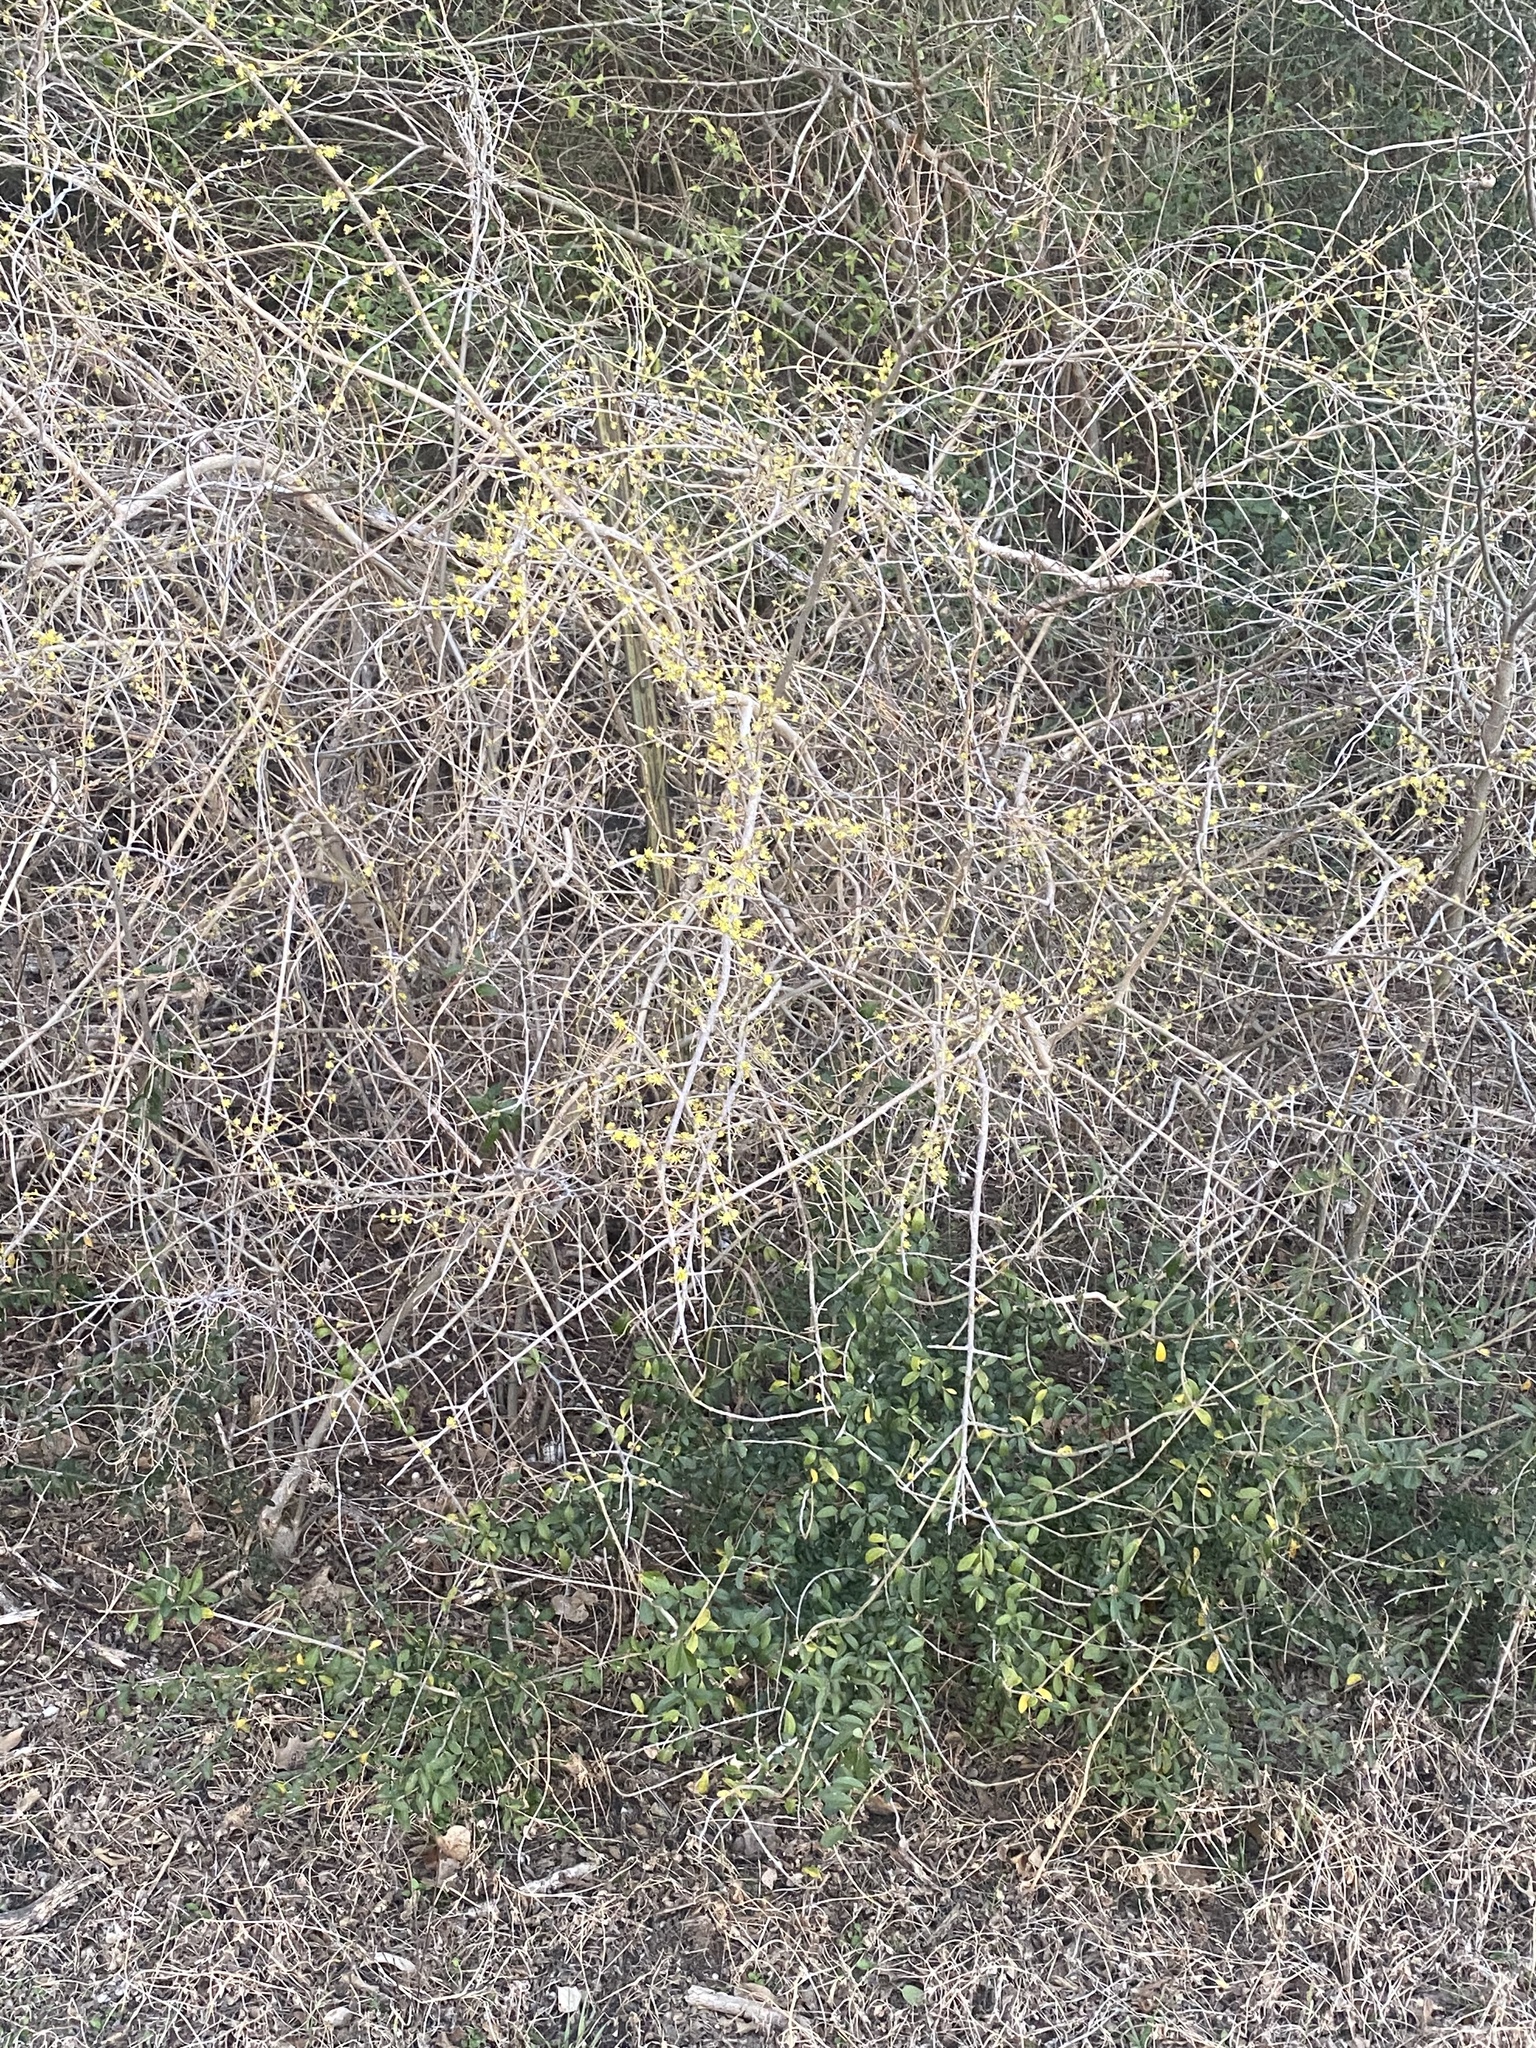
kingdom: Plantae
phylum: Tracheophyta
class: Magnoliopsida
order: Lamiales
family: Oleaceae
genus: Forestiera
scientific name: Forestiera pubescens
